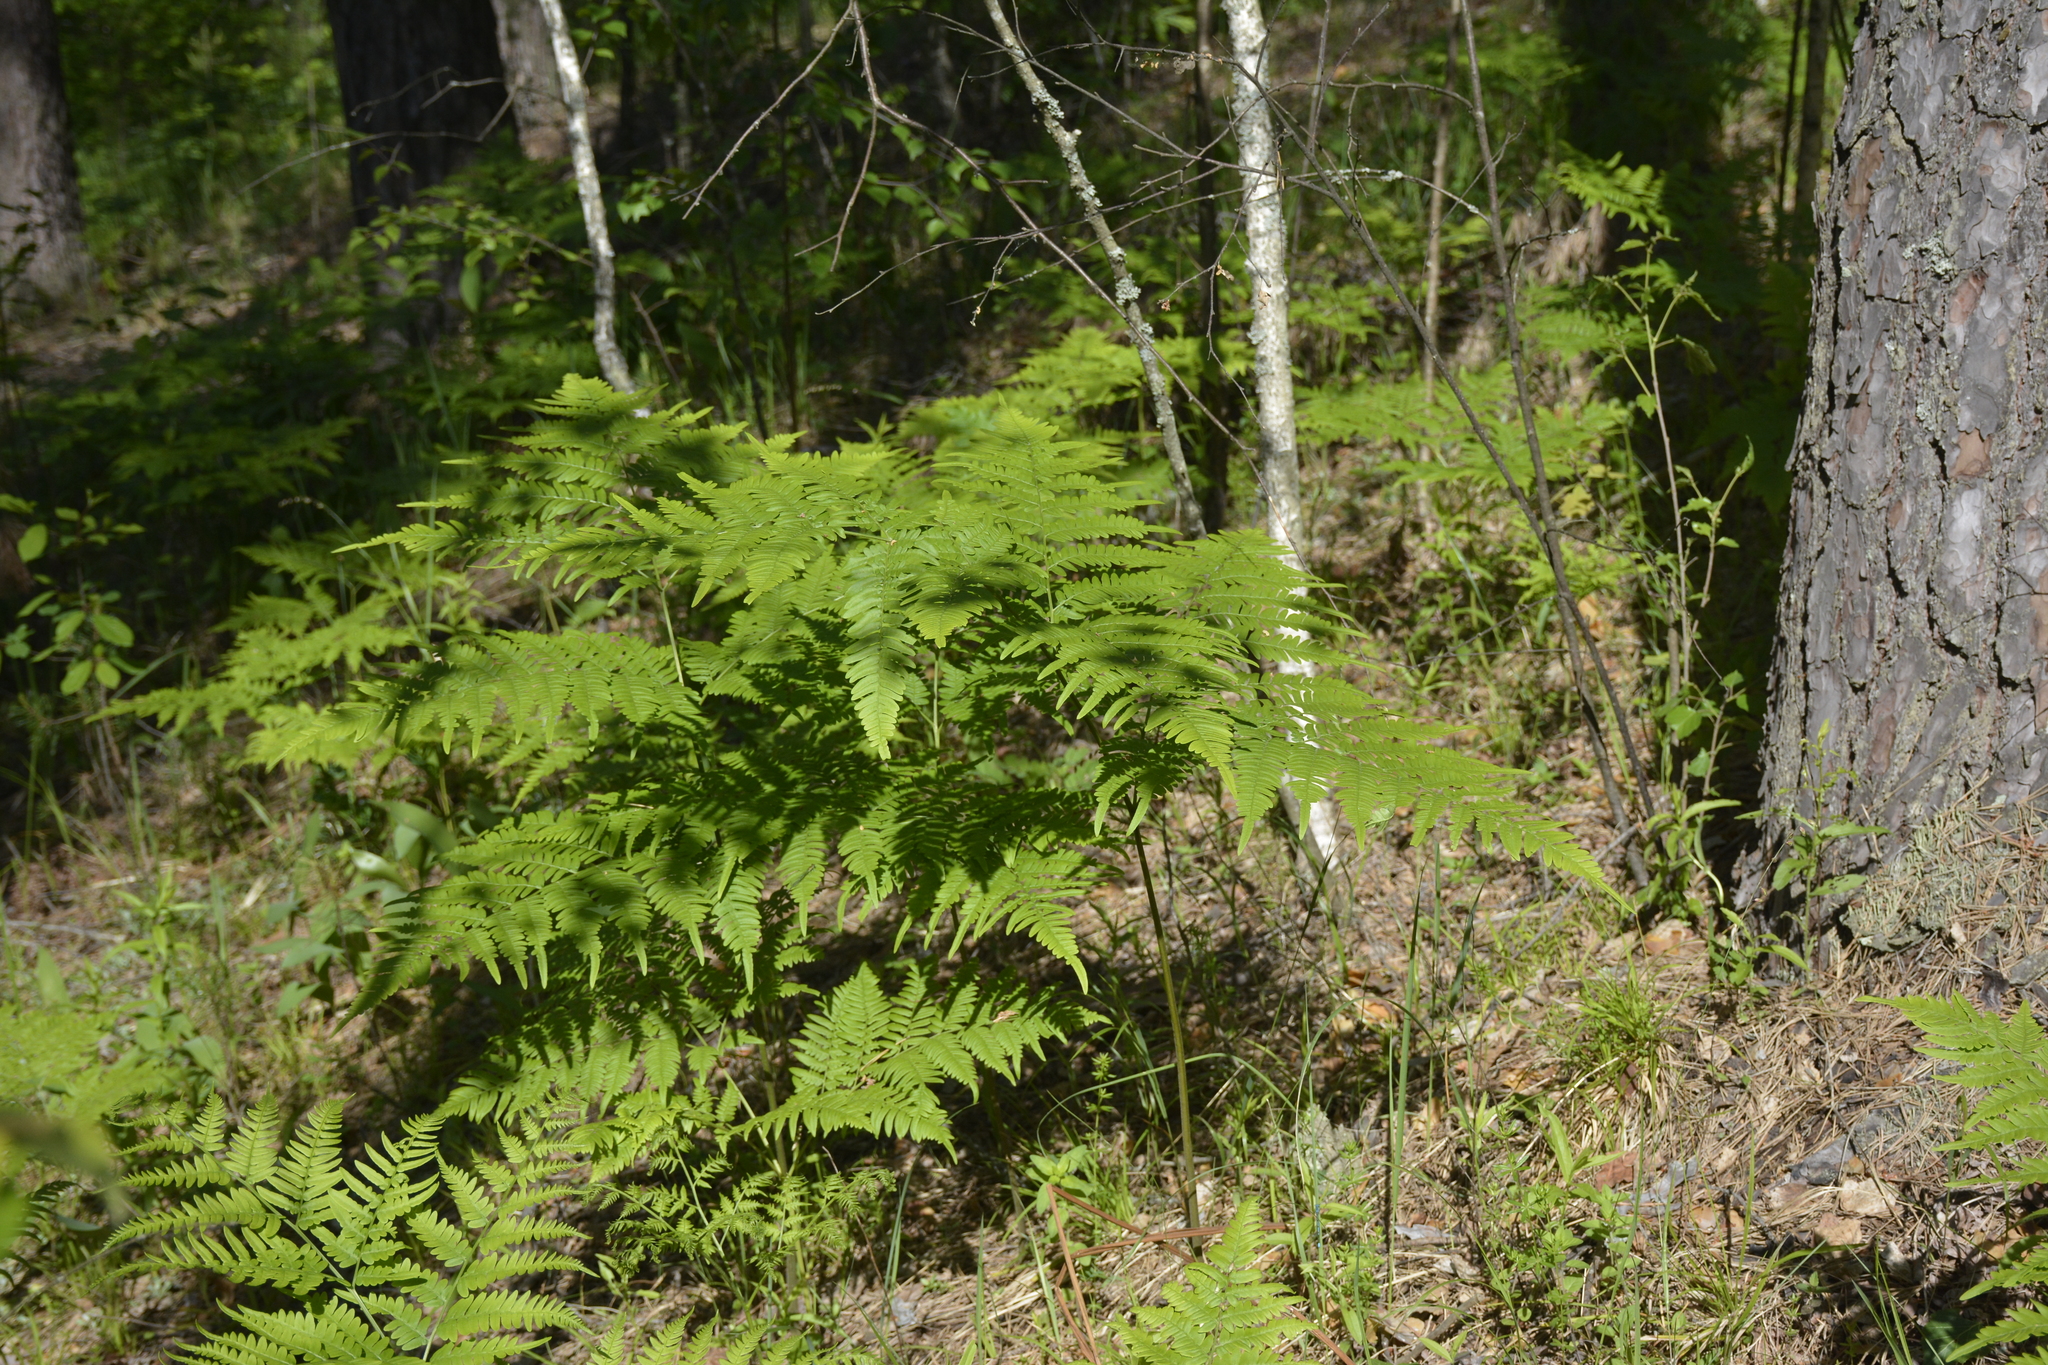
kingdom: Plantae
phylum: Tracheophyta
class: Polypodiopsida
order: Polypodiales
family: Dennstaedtiaceae
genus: Pteridium
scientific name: Pteridium aquilinum
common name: Bracken
